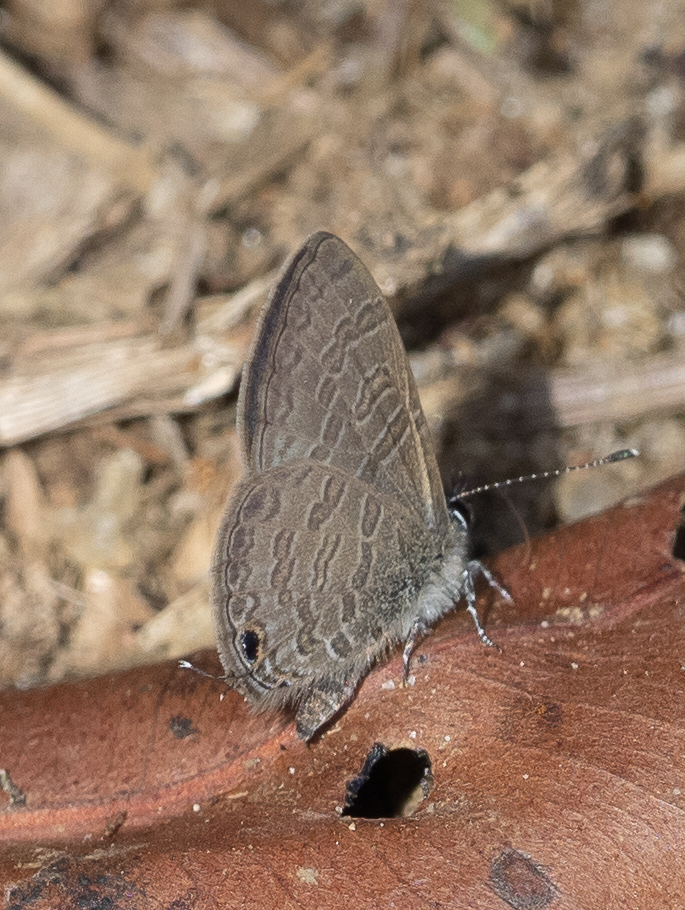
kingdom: Animalia
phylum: Arthropoda
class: Insecta
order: Lepidoptera
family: Lycaenidae
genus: Prosotas
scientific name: Prosotas nora
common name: Common line blue
